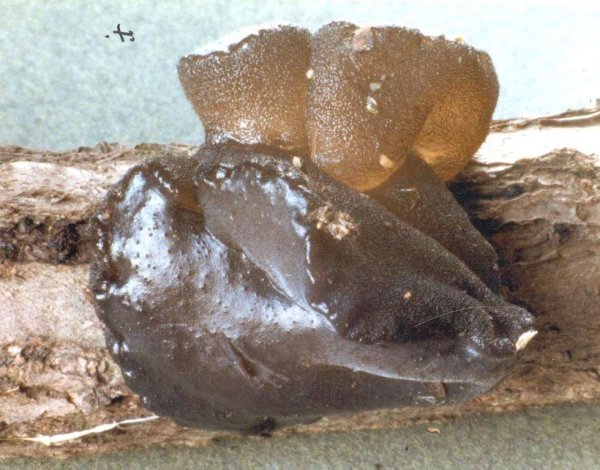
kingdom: Fungi
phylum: Basidiomycota
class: Agaricomycetes
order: Auriculariales
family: Auriculariaceae
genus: Exidia
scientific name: Exidia glandulosa
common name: Witches' butter
